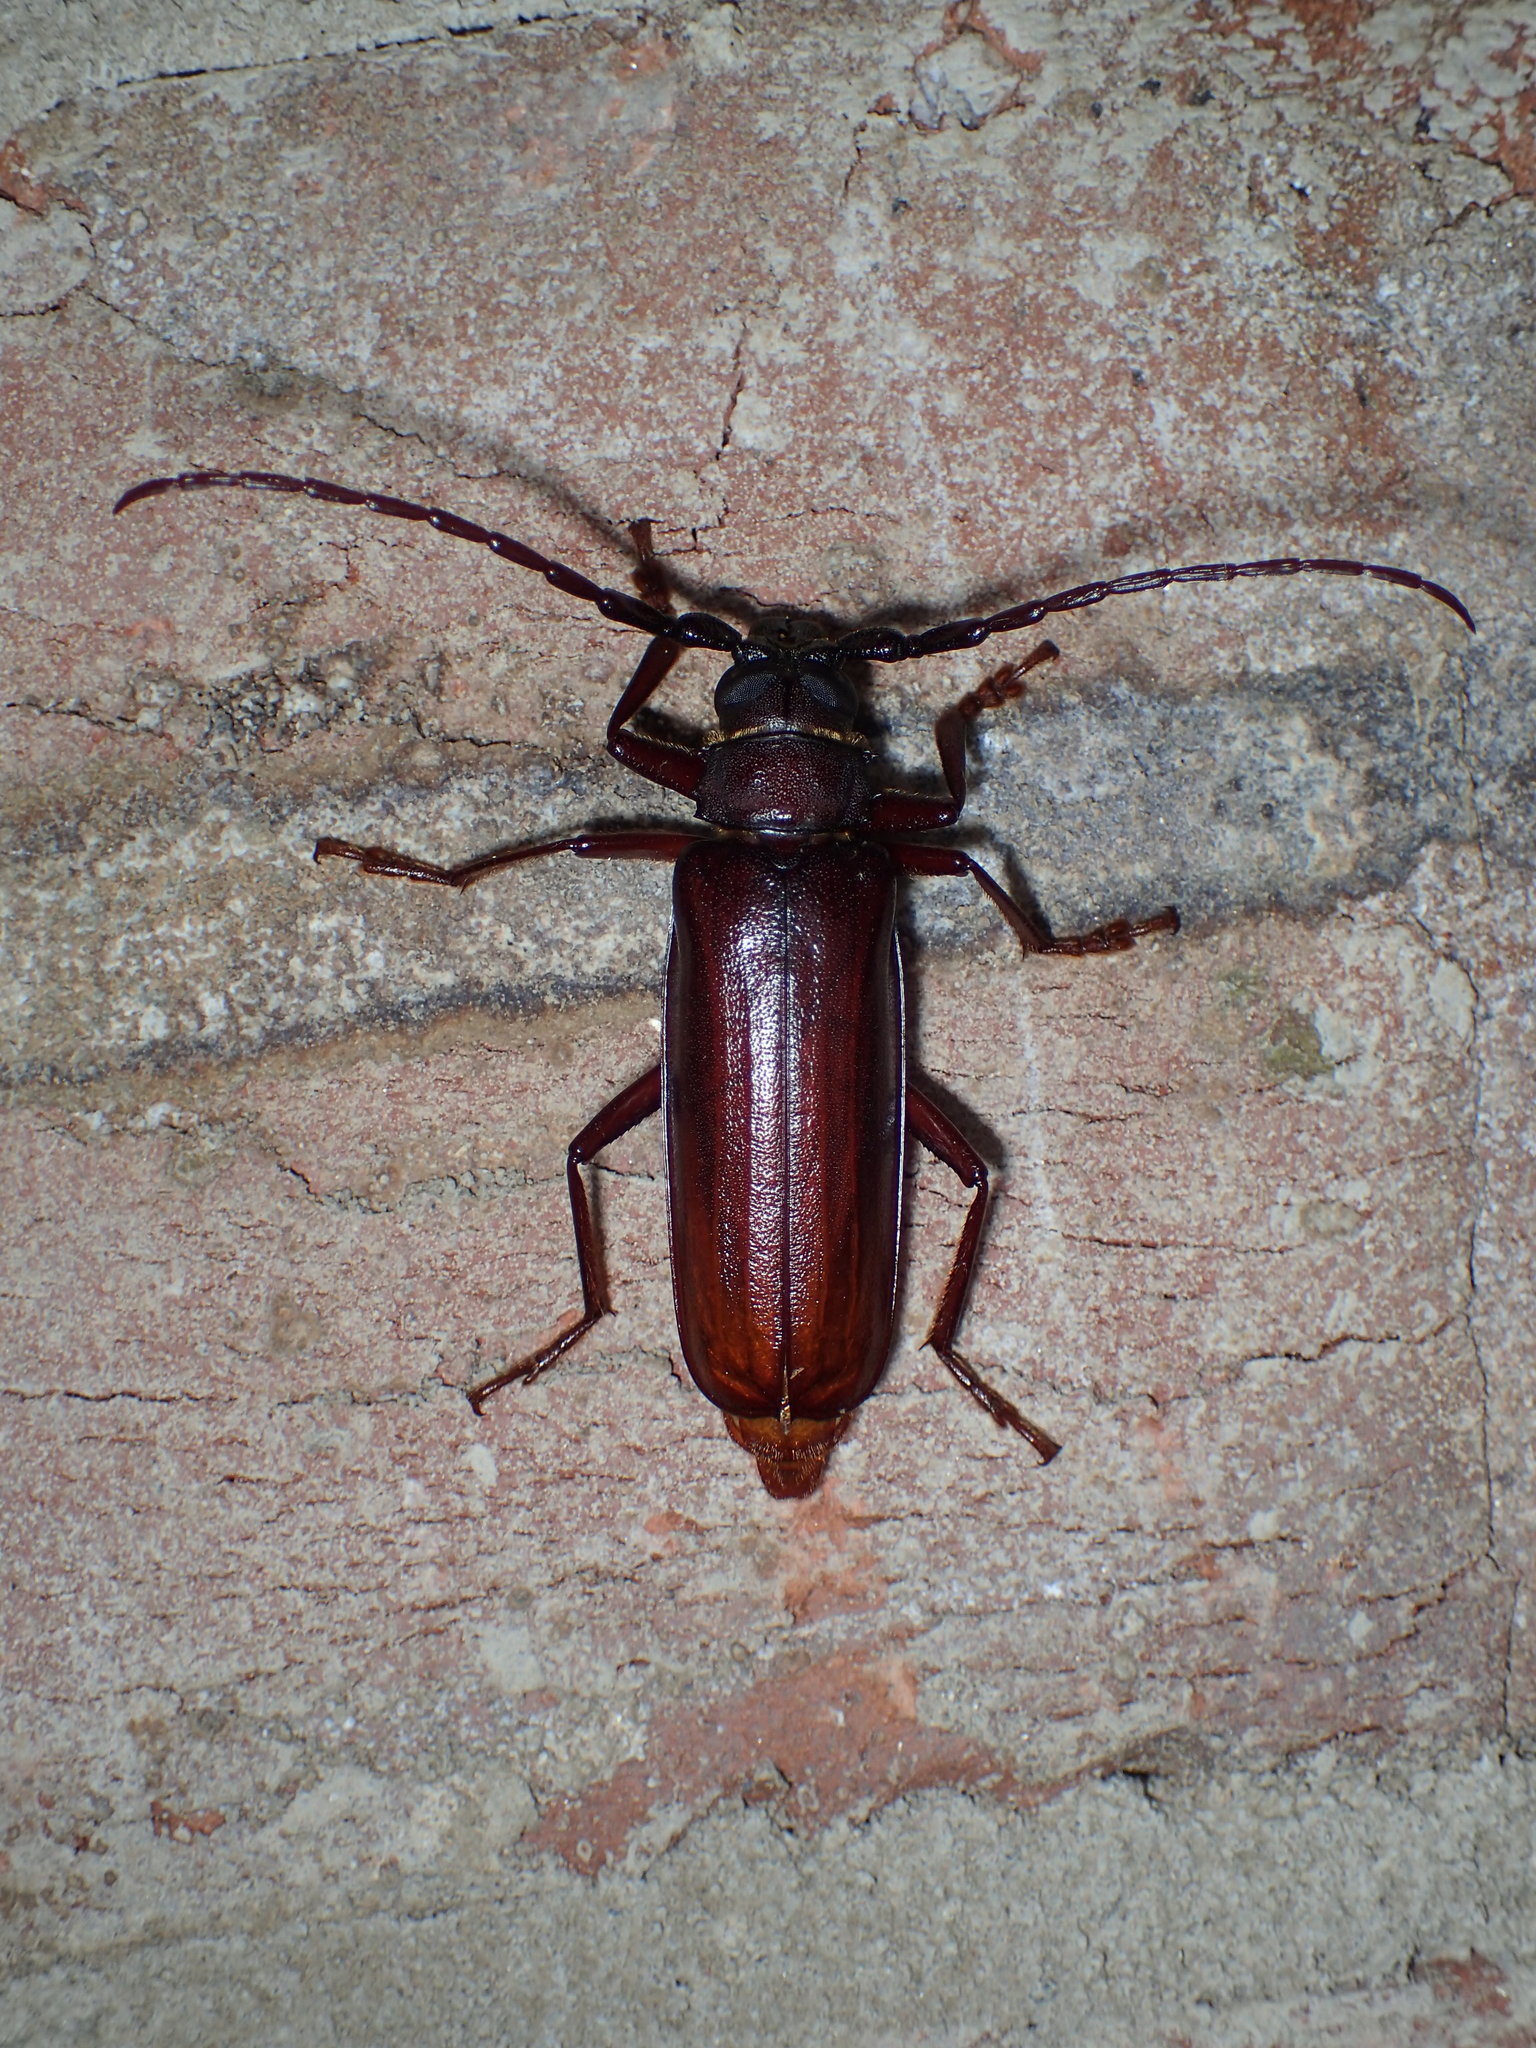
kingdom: Animalia
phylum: Arthropoda
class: Insecta
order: Coleoptera
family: Cerambycidae
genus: Orthosoma
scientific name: Orthosoma brunneum
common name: Brown prionid beetle
